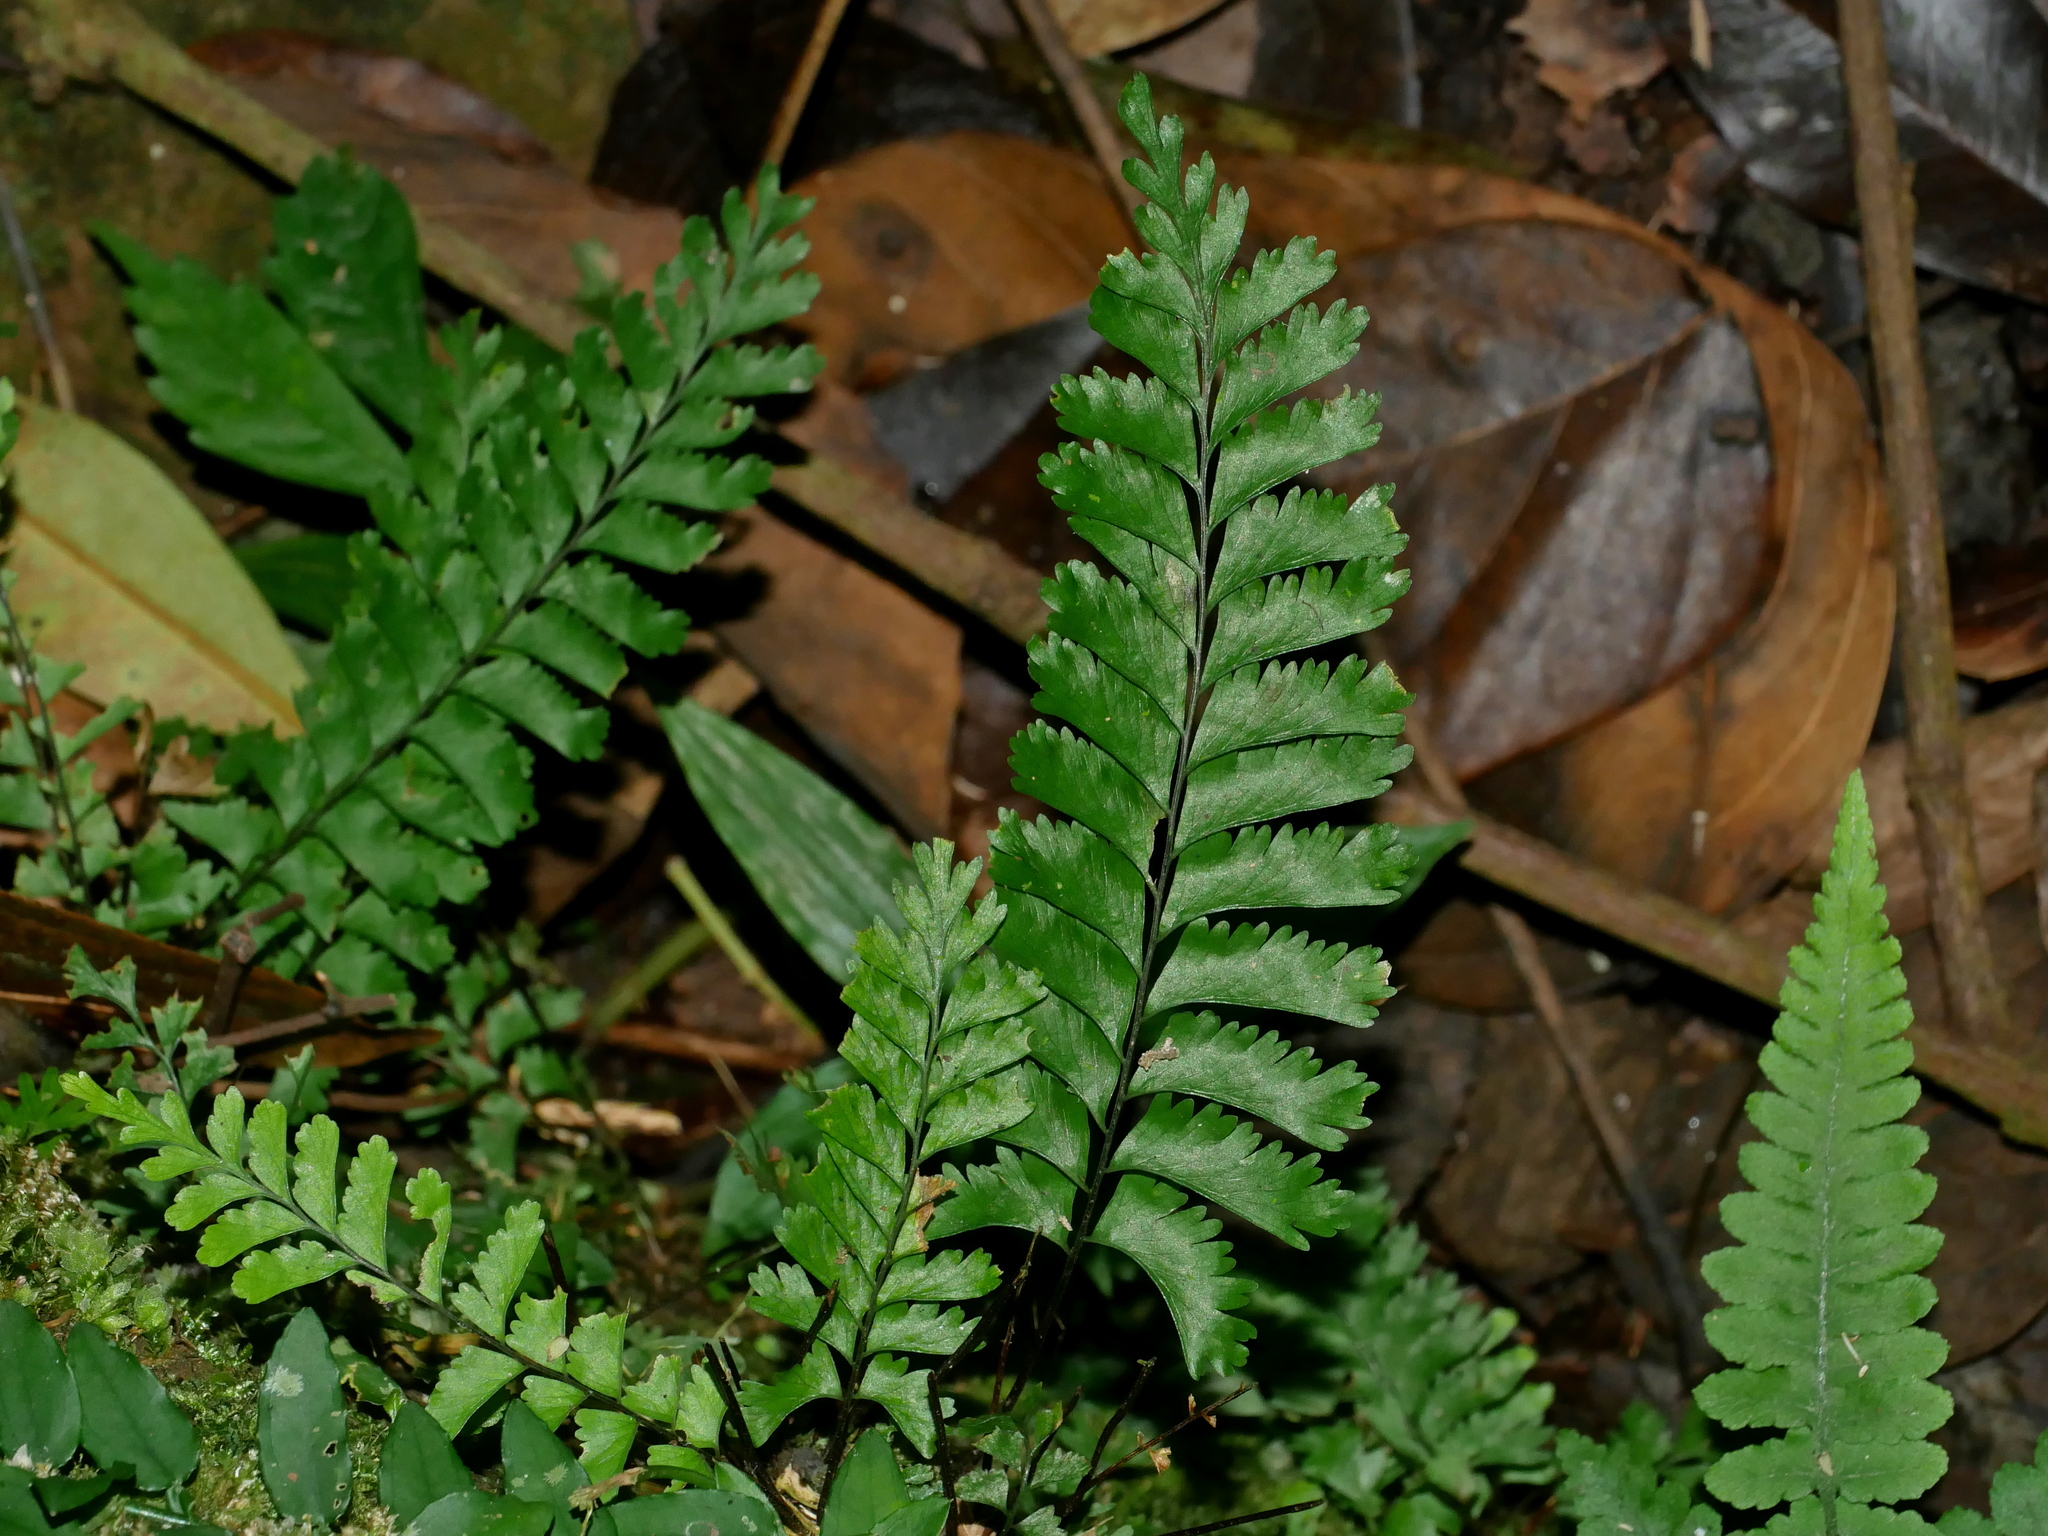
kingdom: Plantae
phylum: Tracheophyta
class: Polypodiopsida
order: Polypodiales
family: Aspleniaceae
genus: Hymenasplenium
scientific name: Hymenasplenium cheilosorum
